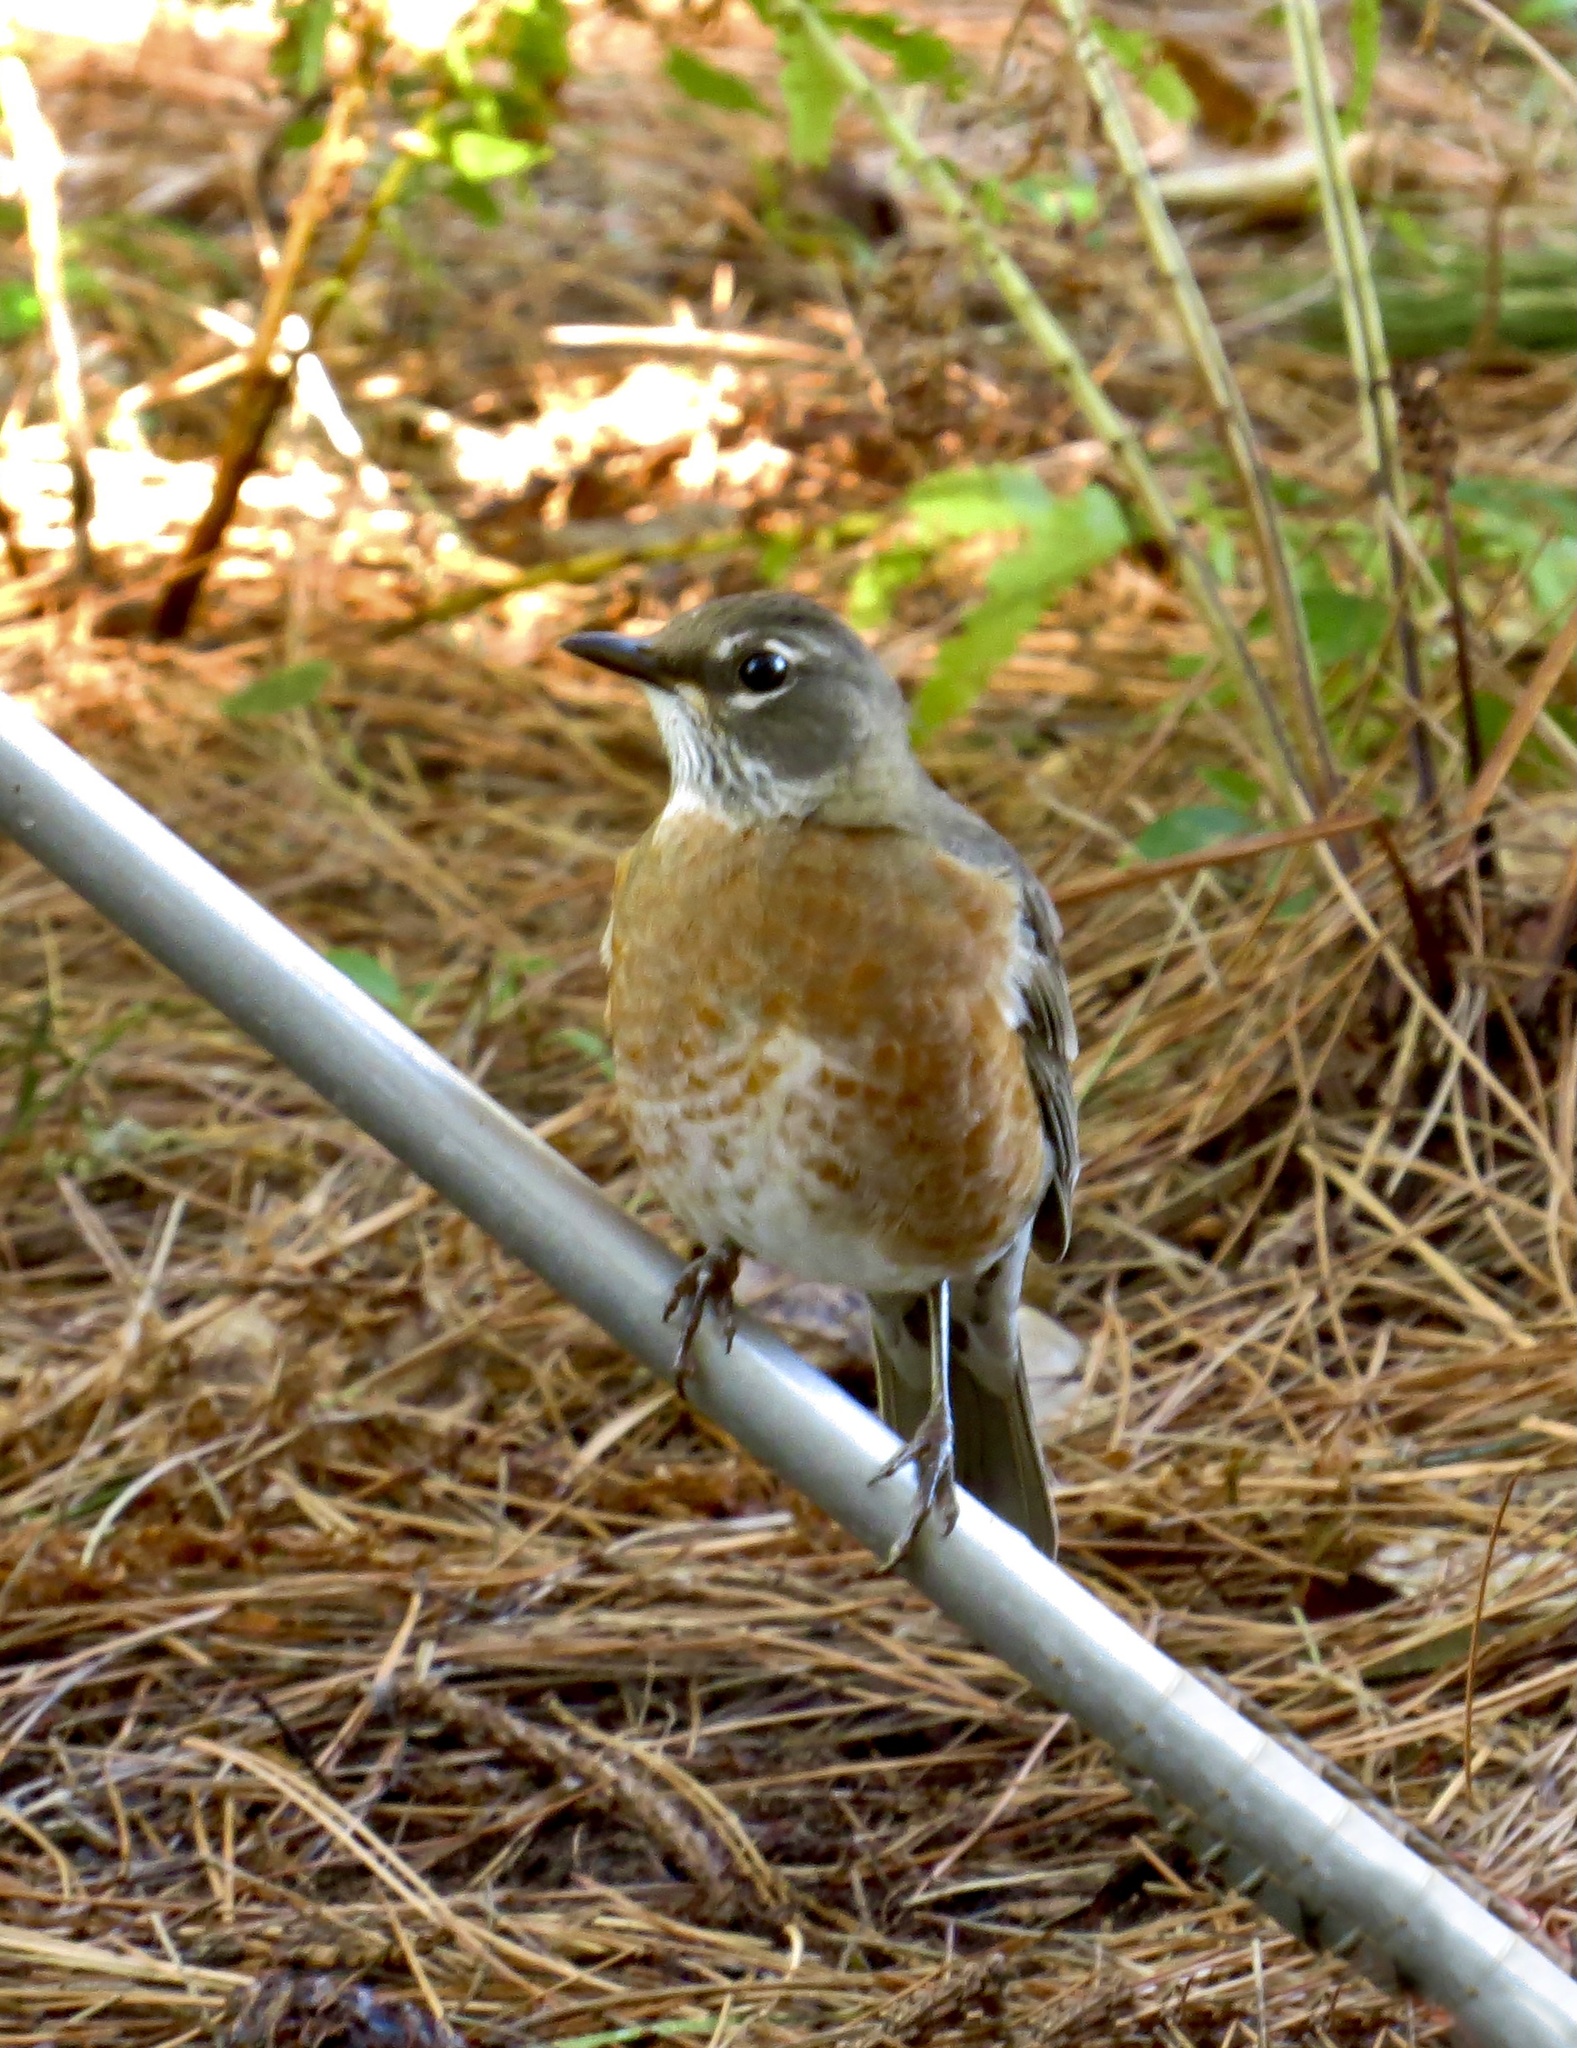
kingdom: Animalia
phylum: Chordata
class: Aves
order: Passeriformes
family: Turdidae
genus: Turdus
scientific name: Turdus migratorius
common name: American robin
